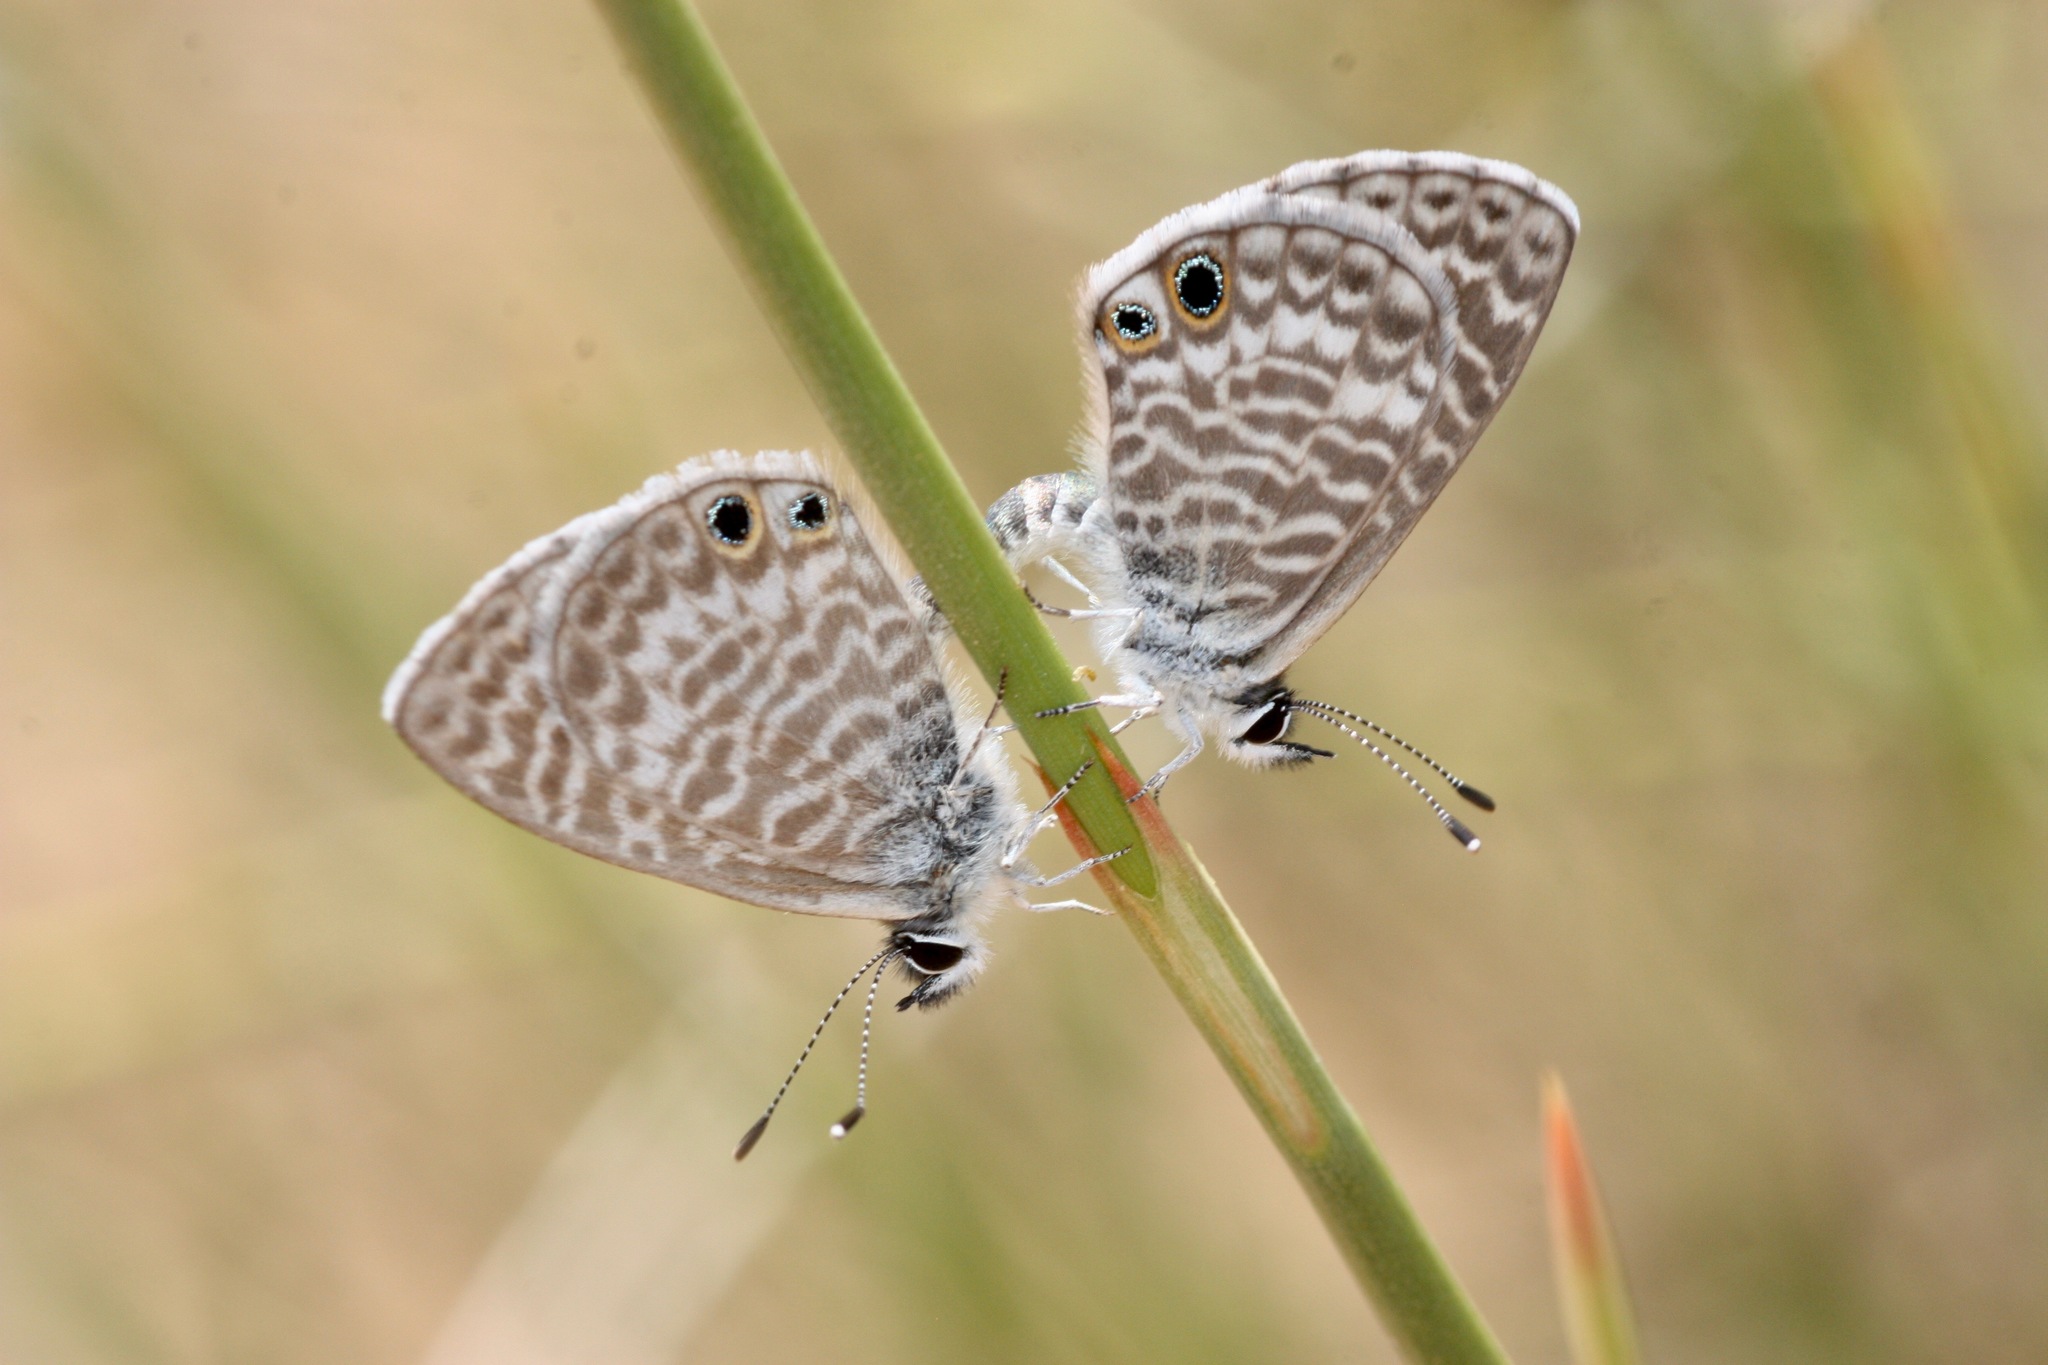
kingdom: Animalia
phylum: Arthropoda
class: Insecta
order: Lepidoptera
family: Lycaenidae
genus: Leptotes
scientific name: Leptotes marina
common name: Marine blue
